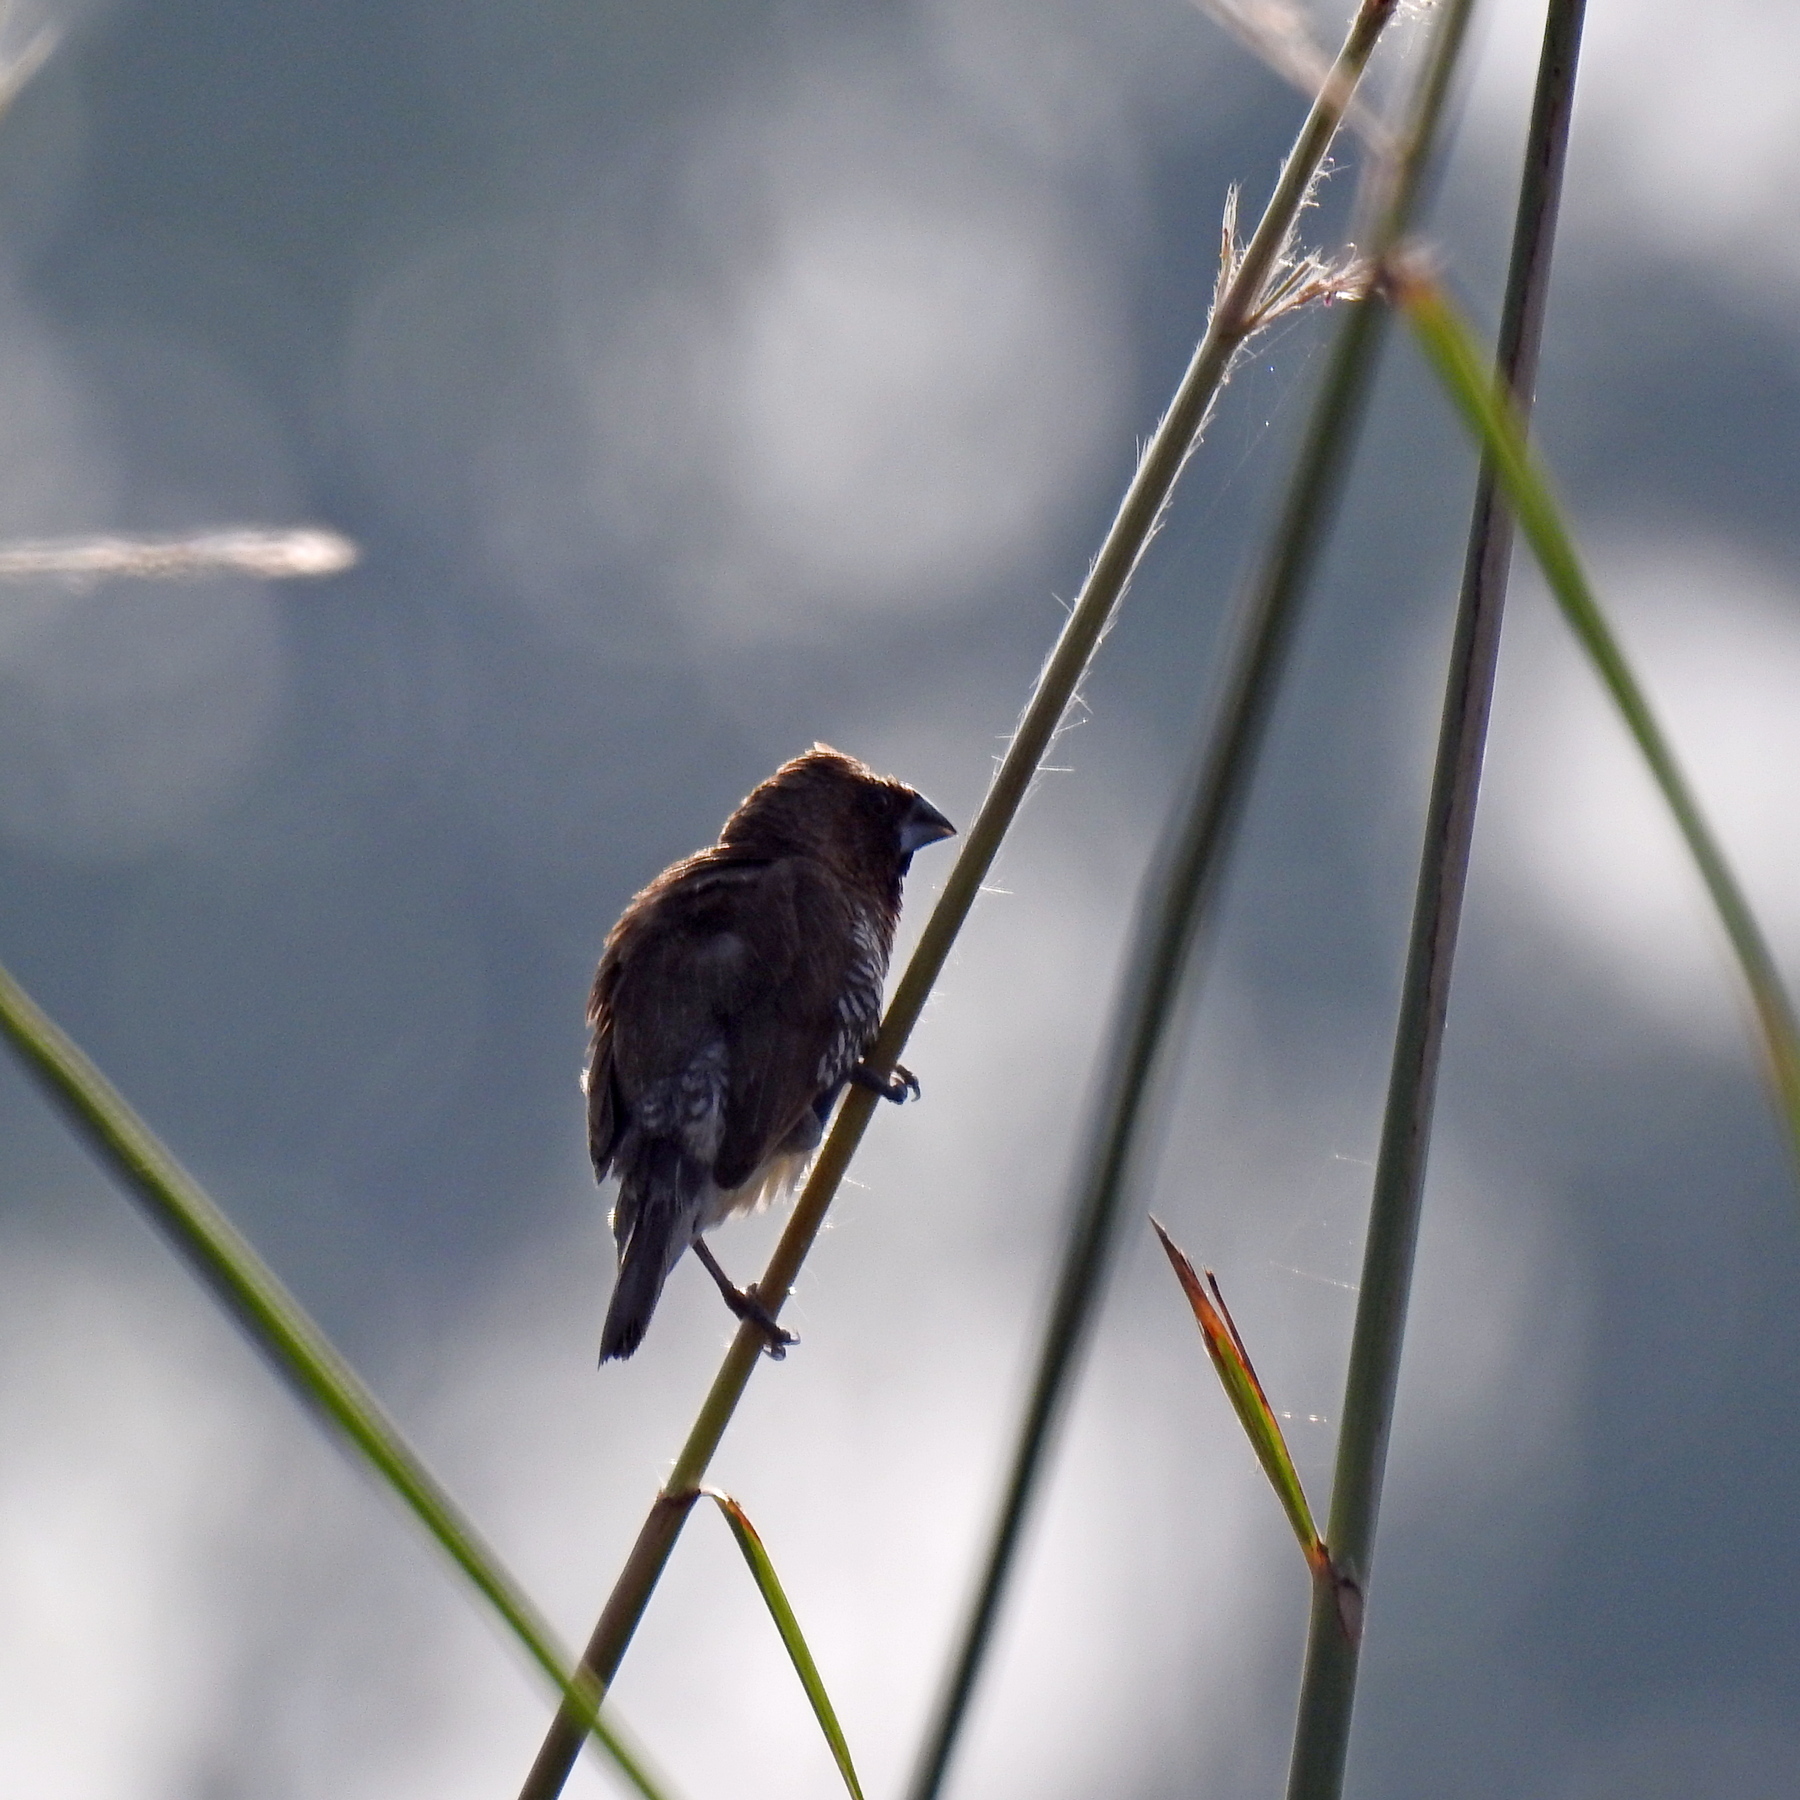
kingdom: Animalia
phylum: Chordata
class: Aves
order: Passeriformes
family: Estrildidae
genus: Lonchura
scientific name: Lonchura punctulata
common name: Scaly-breasted munia
